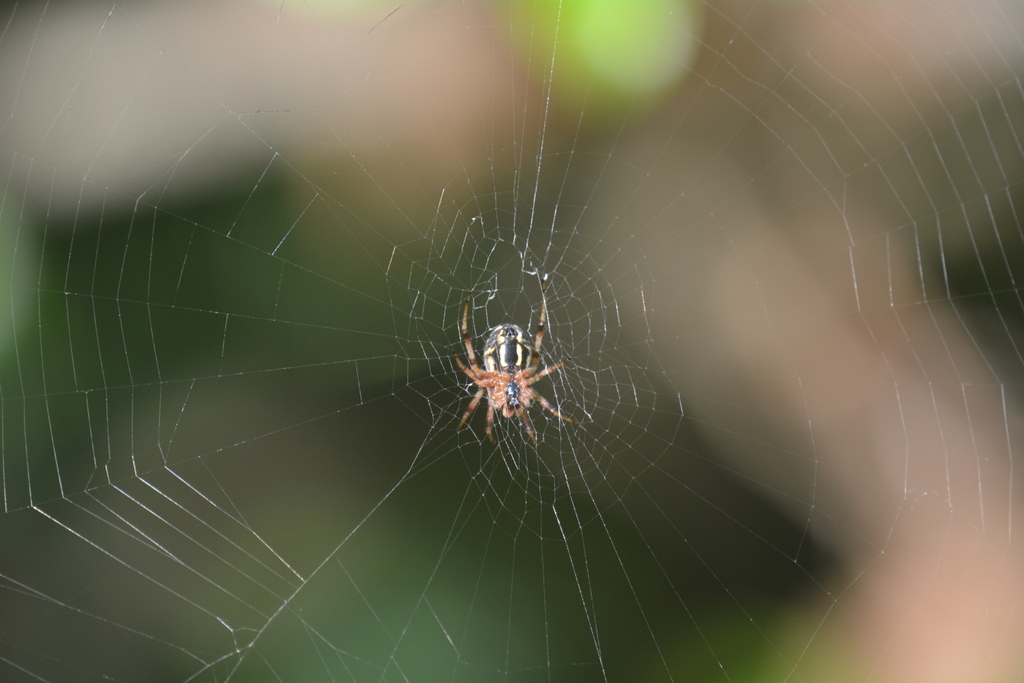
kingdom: Animalia
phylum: Arthropoda
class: Arachnida
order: Araneae
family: Araneidae
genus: Neoscona
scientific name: Neoscona adianta
